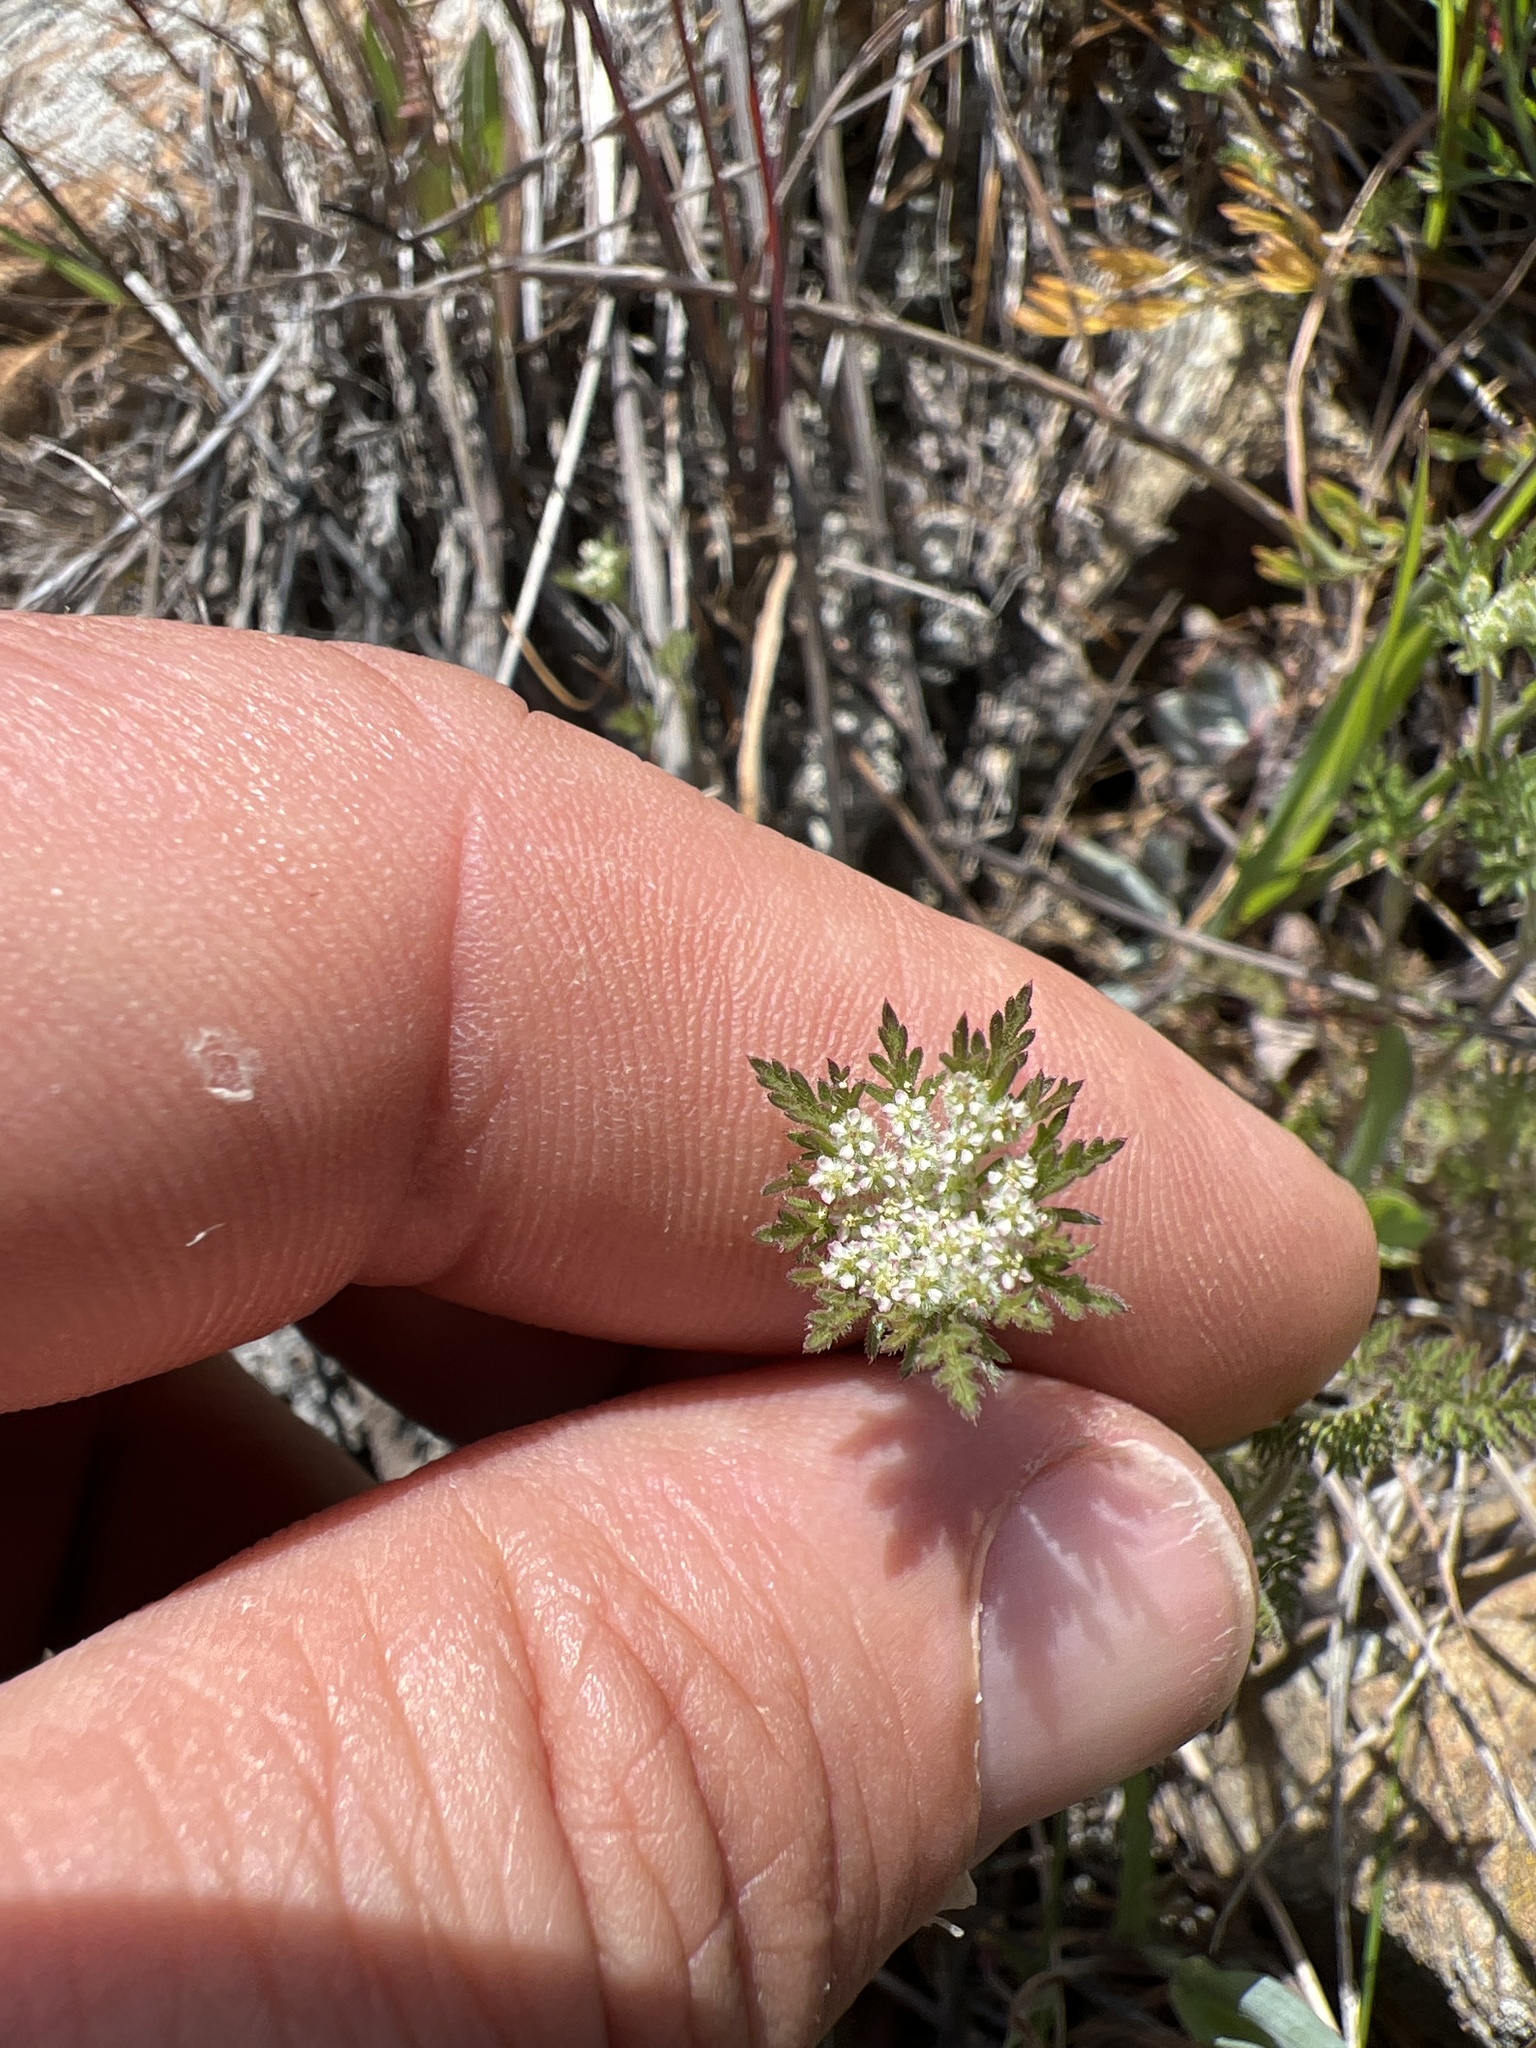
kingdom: Plantae
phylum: Tracheophyta
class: Magnoliopsida
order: Apiales
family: Apiaceae
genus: Daucus
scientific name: Daucus pusillus
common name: Southwest wild carrot
